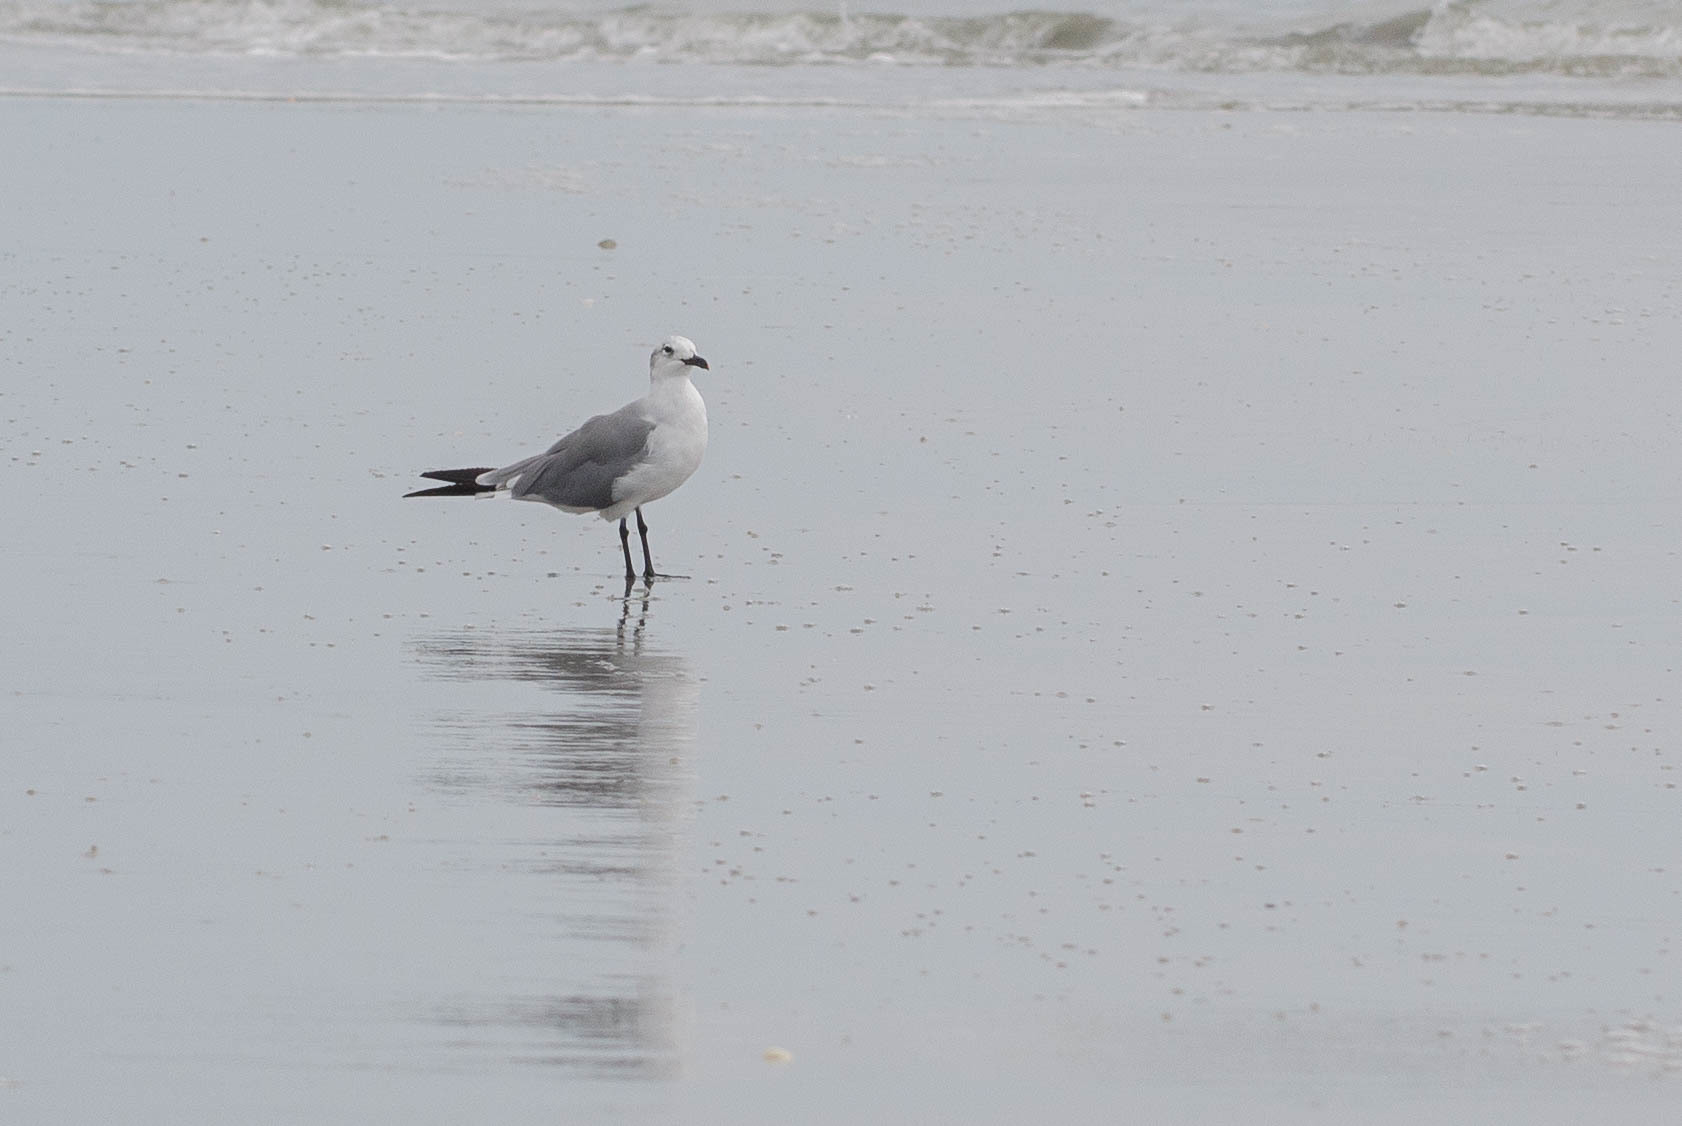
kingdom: Animalia
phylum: Chordata
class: Aves
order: Charadriiformes
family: Laridae
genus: Leucophaeus
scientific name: Leucophaeus atricilla
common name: Laughing gull
